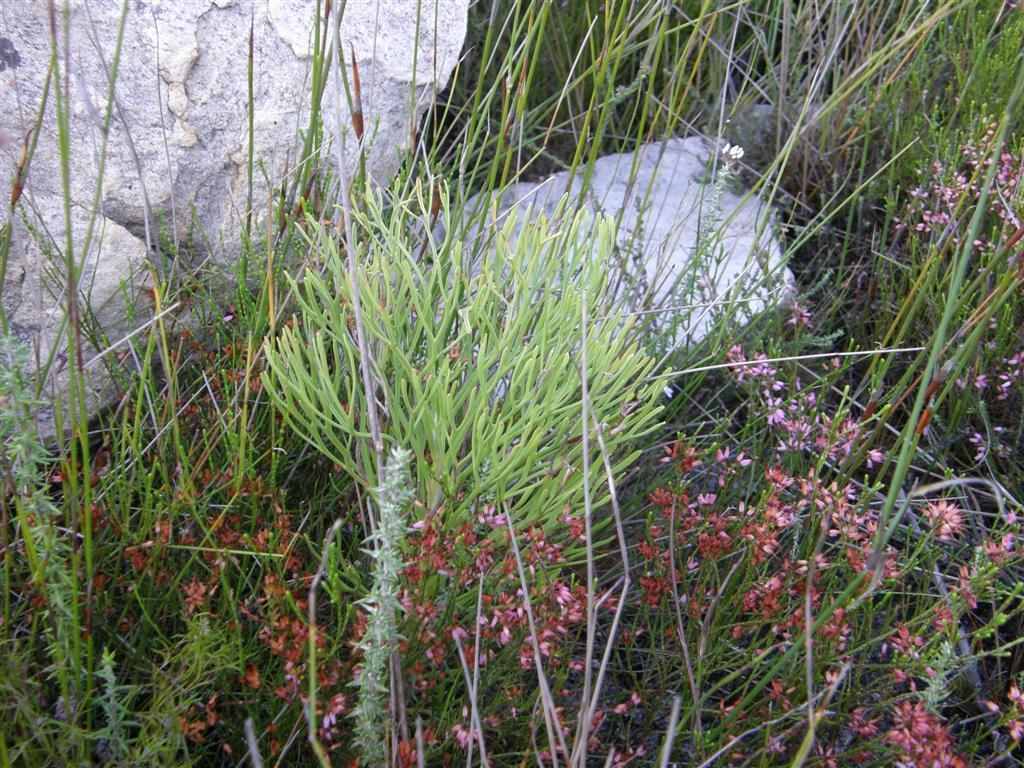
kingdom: Plantae
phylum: Tracheophyta
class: Magnoliopsida
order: Proteales
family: Proteaceae
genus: Paranomus
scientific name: Paranomus sceptrum-gustavianus
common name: King gustav's sceptre
